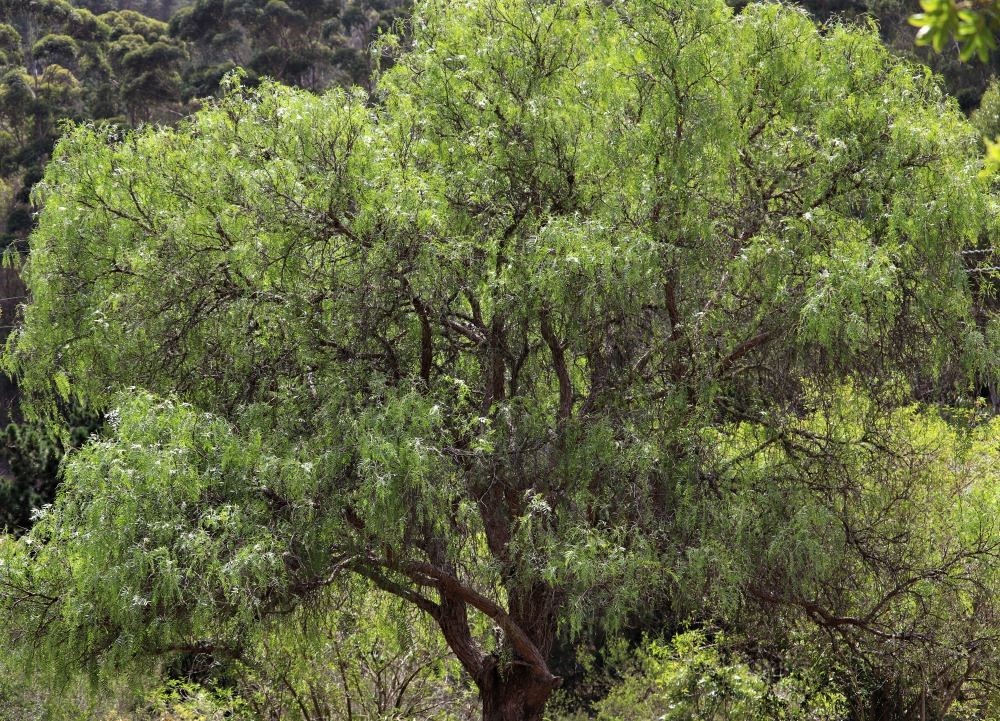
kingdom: Plantae
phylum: Tracheophyta
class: Magnoliopsida
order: Sapindales
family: Anacardiaceae
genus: Schinus
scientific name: Schinus molle
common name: Peruvian peppertree
